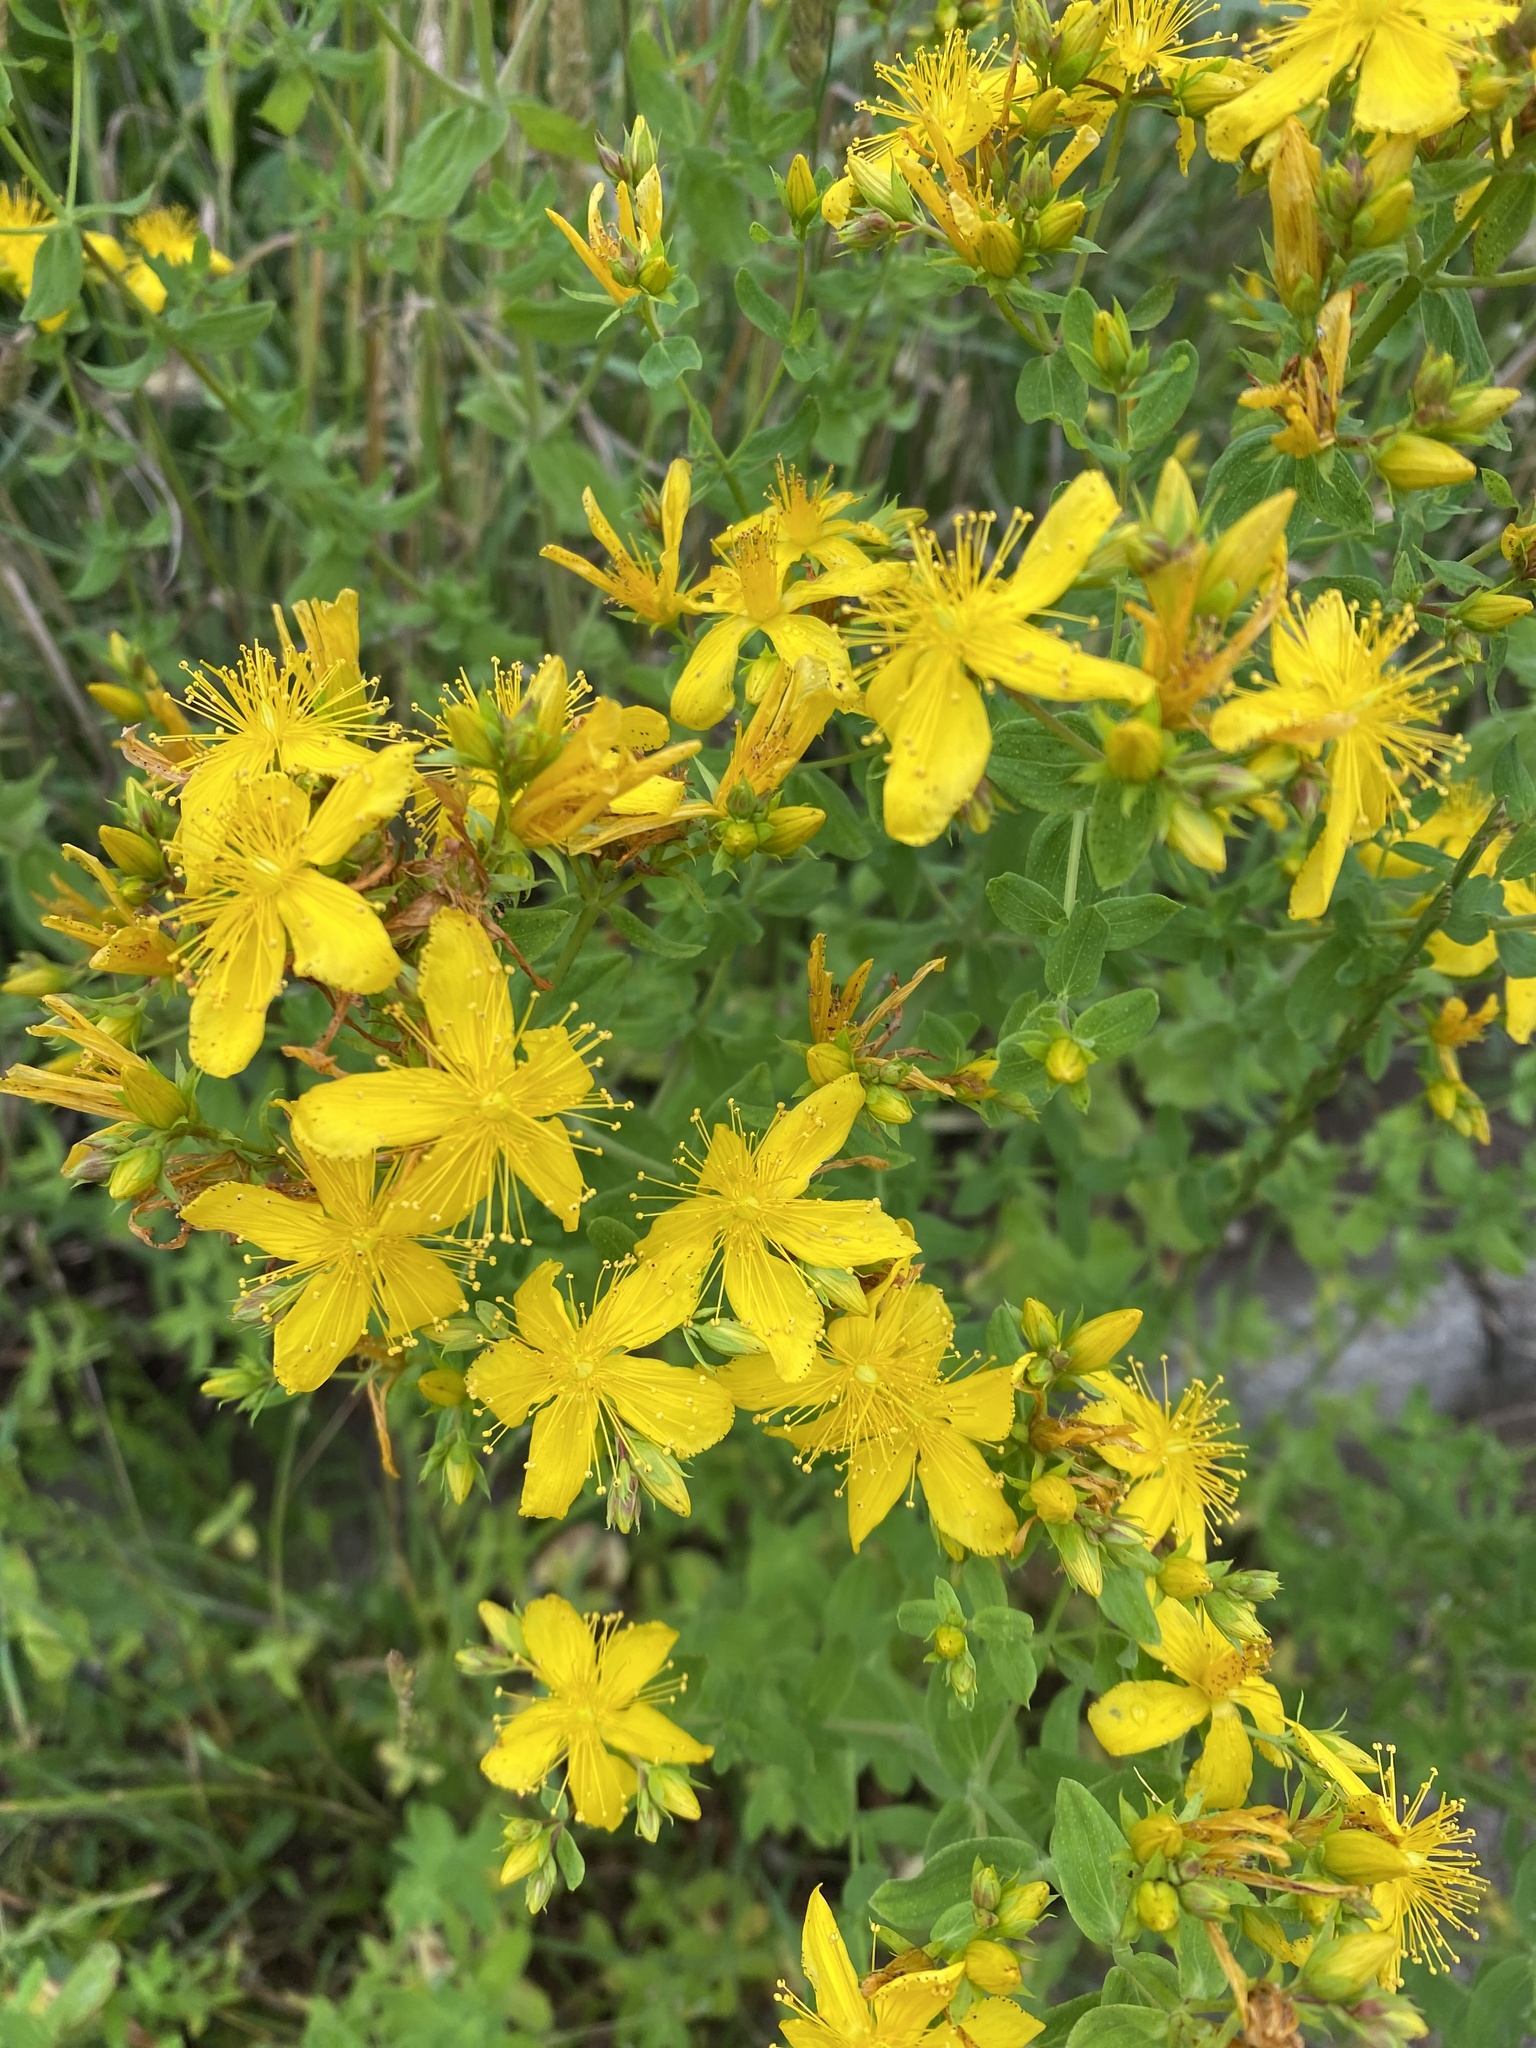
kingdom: Plantae
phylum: Tracheophyta
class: Magnoliopsida
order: Malpighiales
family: Hypericaceae
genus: Hypericum
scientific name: Hypericum perforatum
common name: Common st. johnswort
